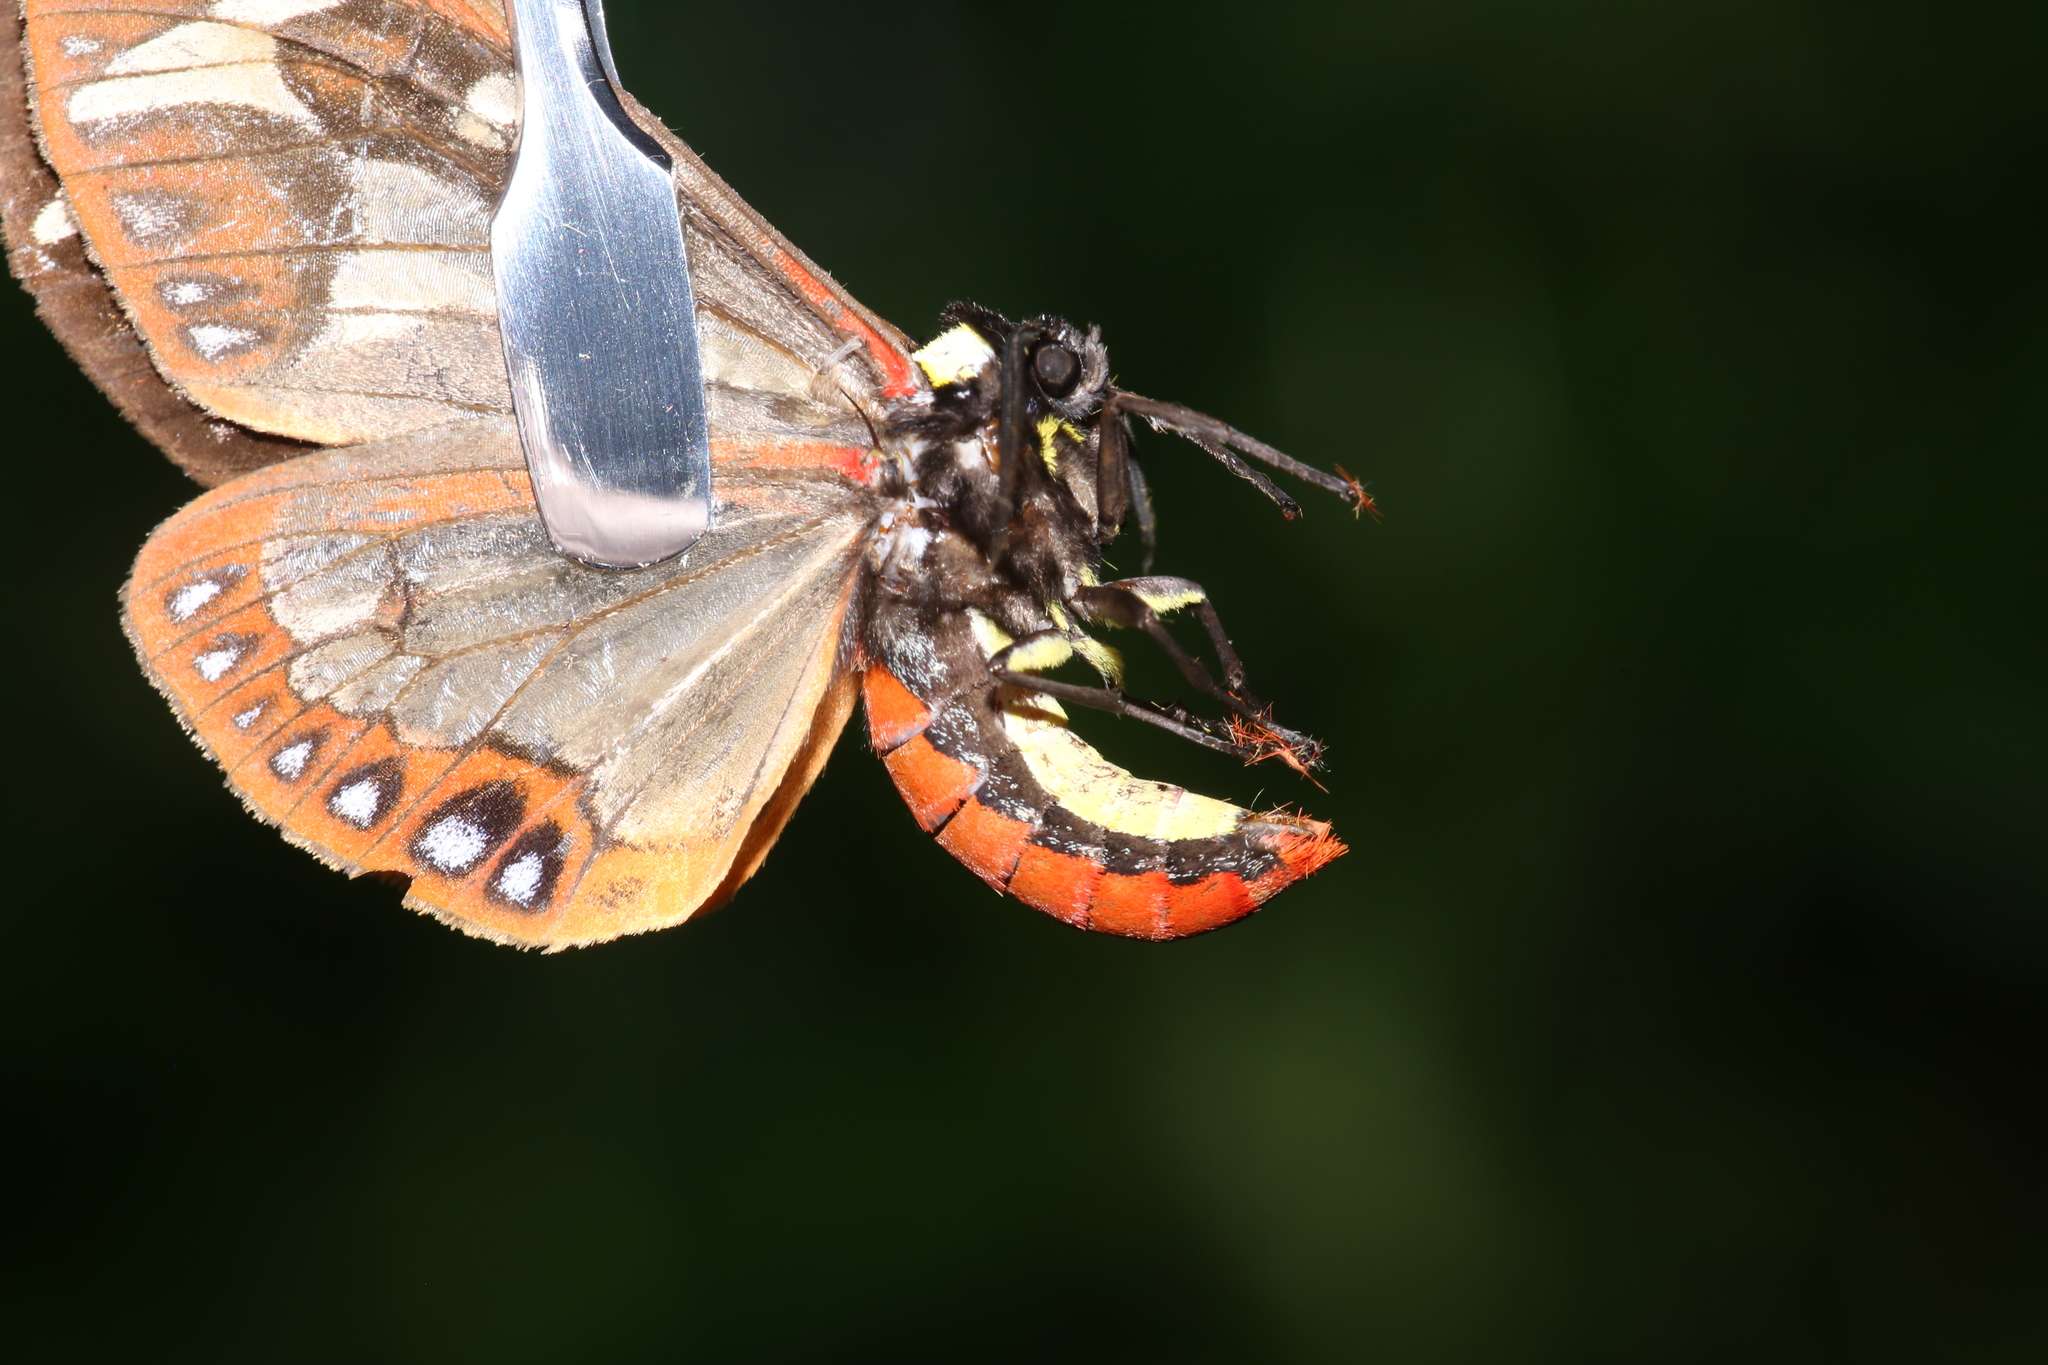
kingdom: Animalia
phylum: Arthropoda
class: Insecta
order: Lepidoptera
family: Erebidae
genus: Dysschema
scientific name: Dysschema howardi
